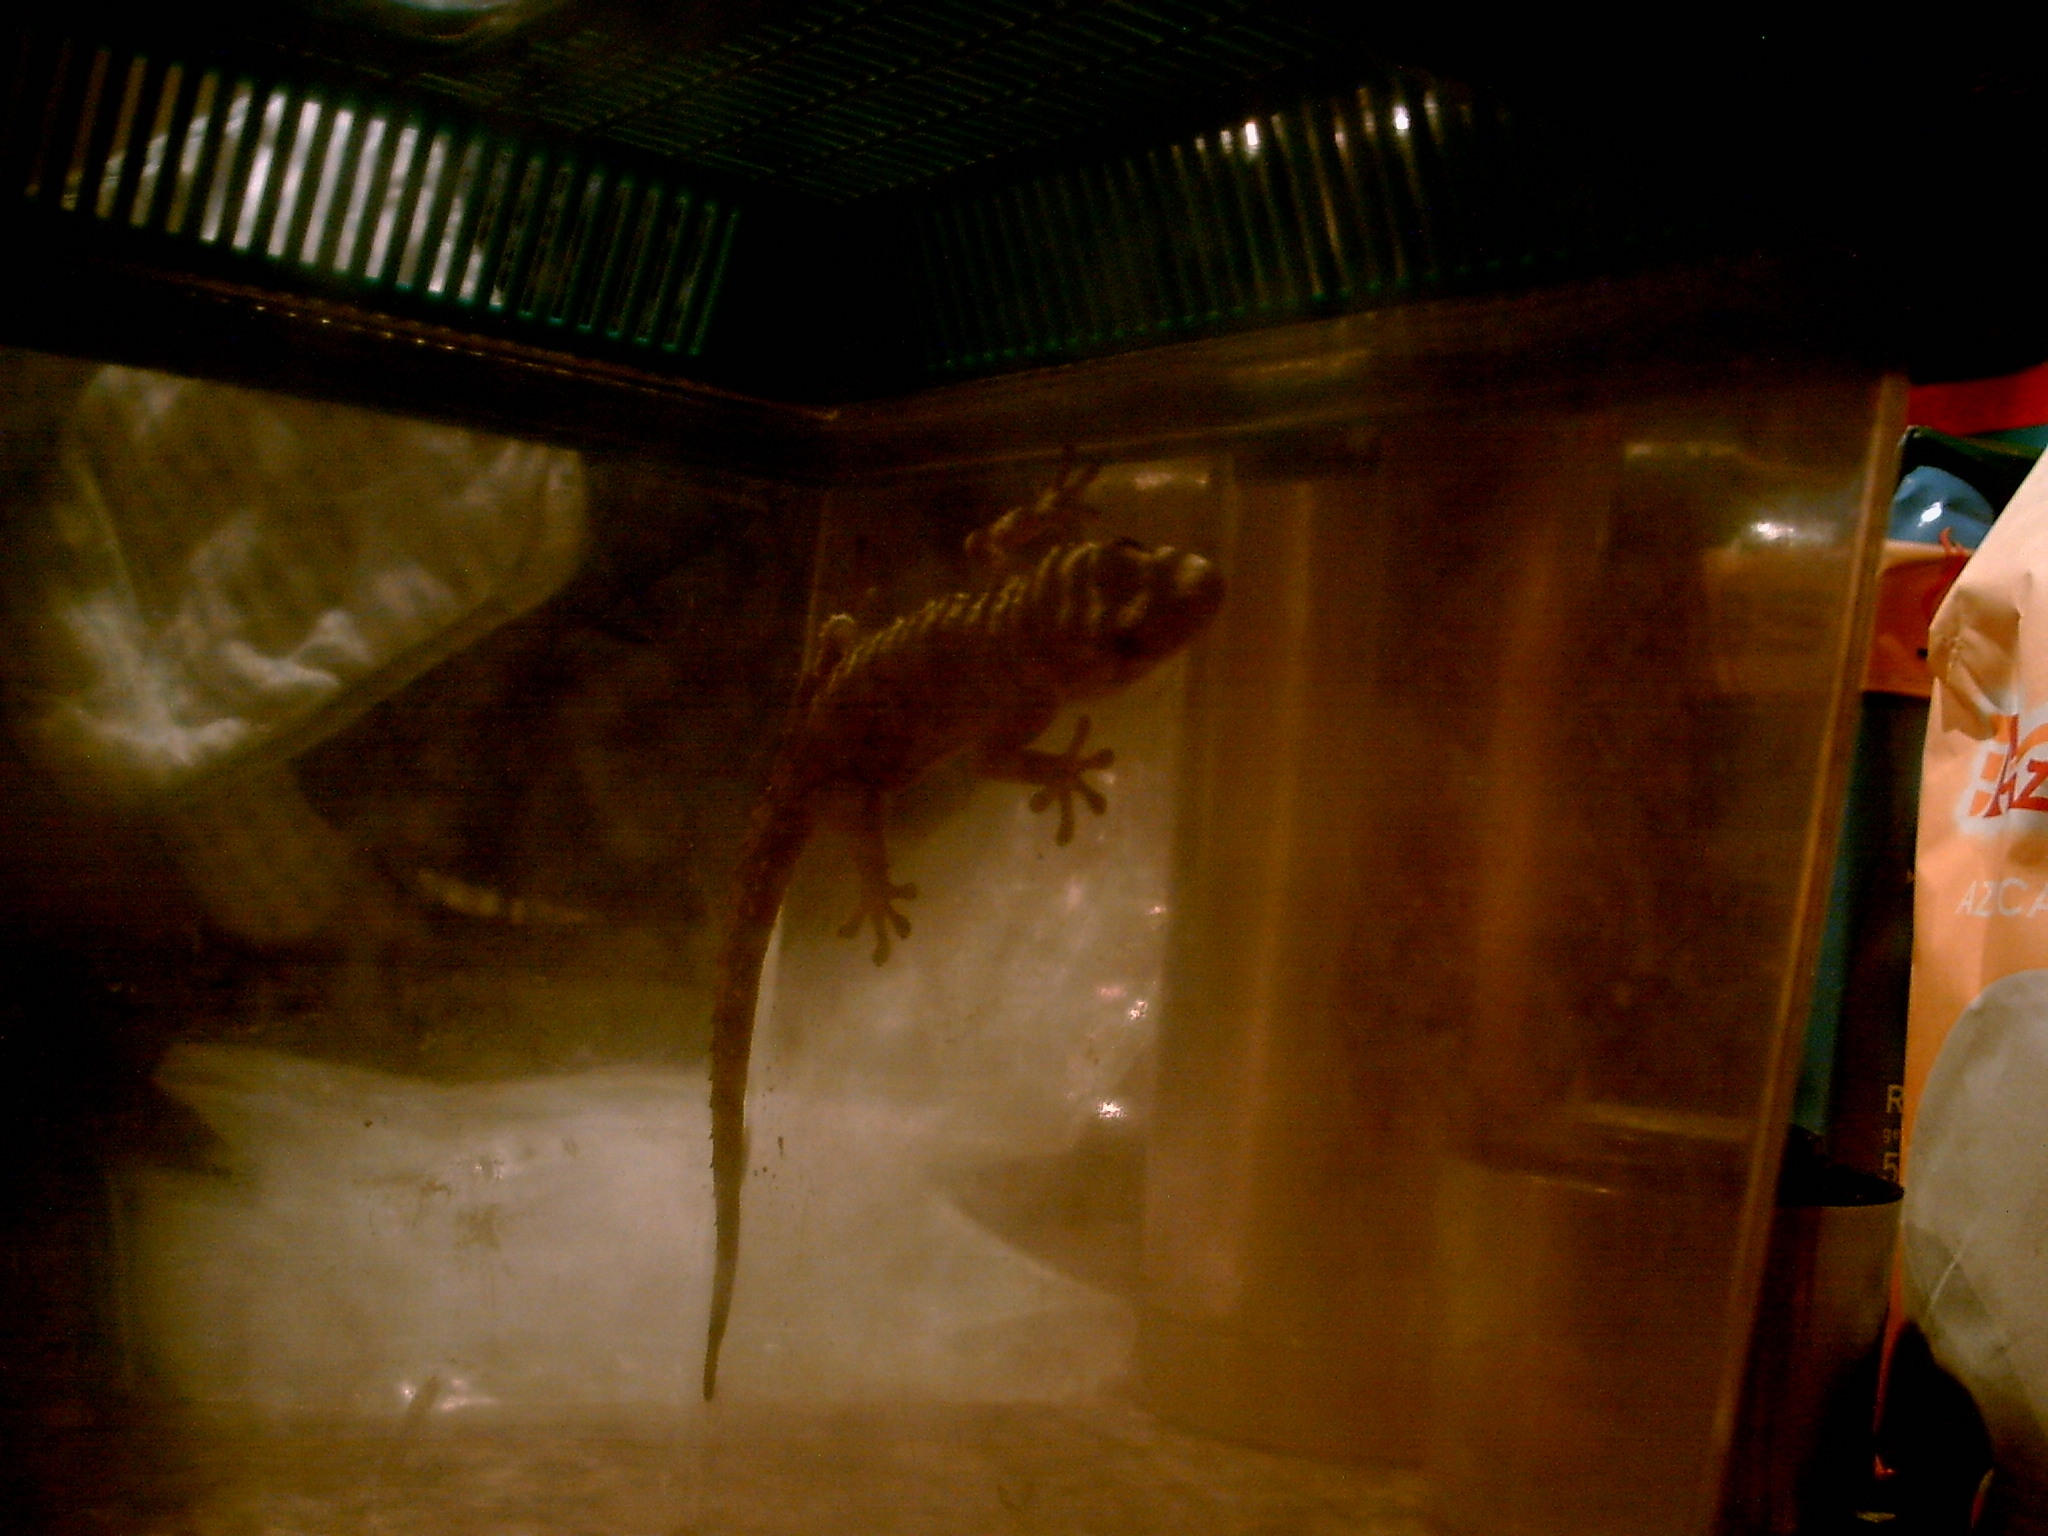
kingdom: Animalia
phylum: Chordata
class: Squamata
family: Phyllodactylidae
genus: Tarentola
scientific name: Tarentola mauritanica
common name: Moorish gecko
